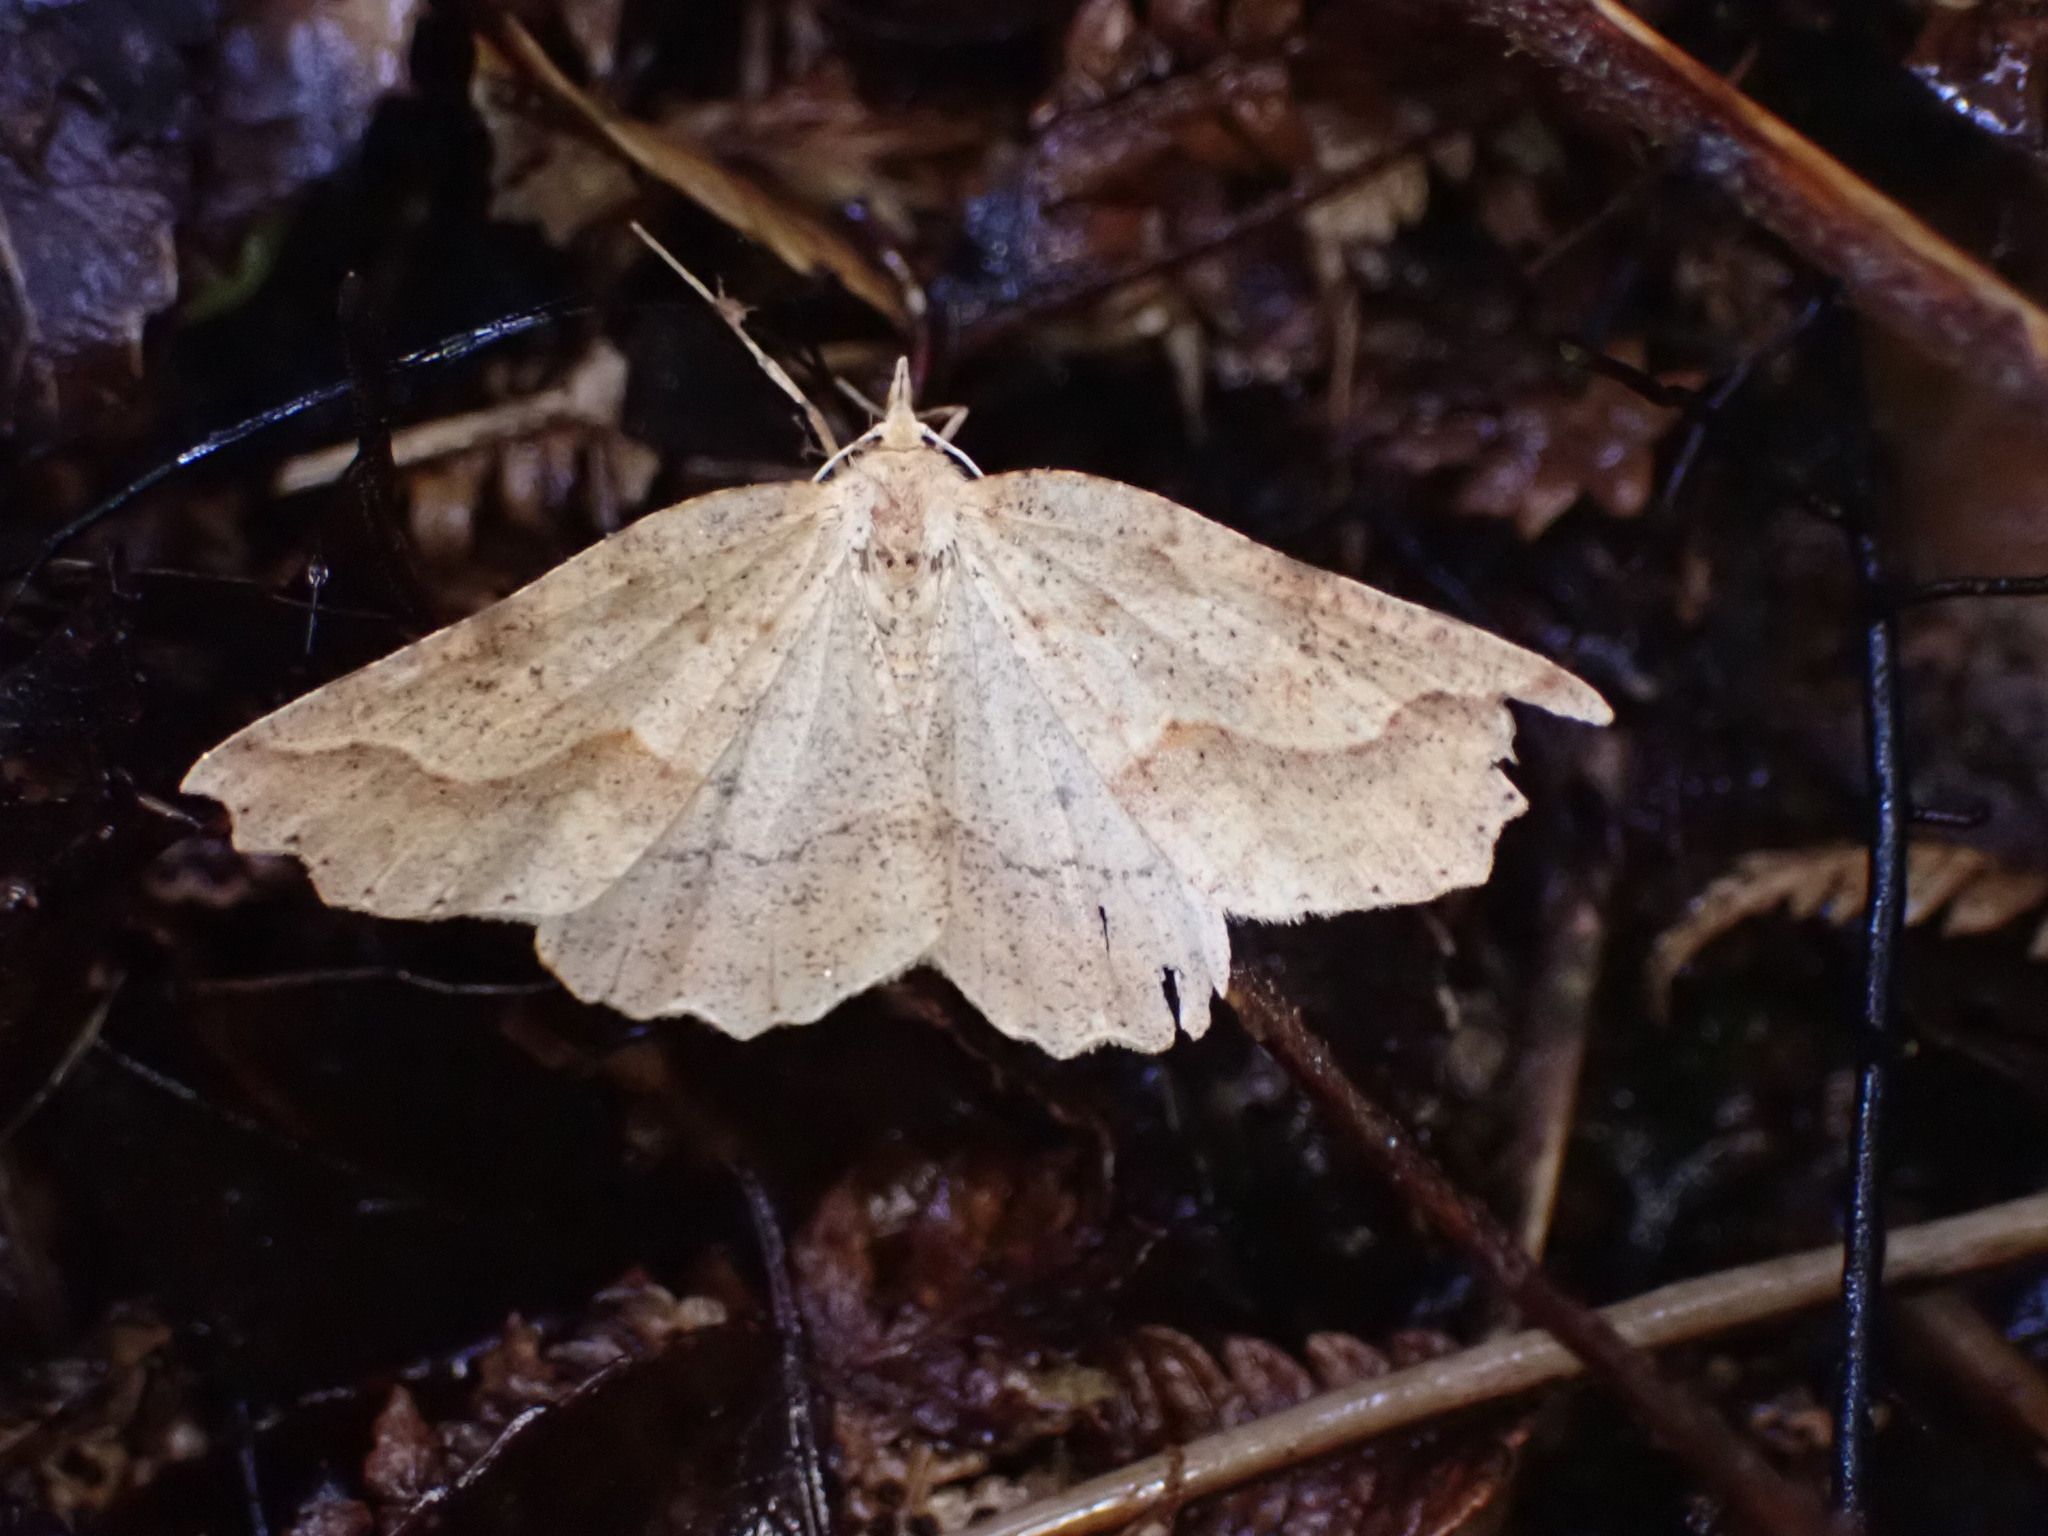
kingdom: Animalia
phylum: Arthropoda
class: Insecta
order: Lepidoptera
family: Geometridae
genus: Ischalis
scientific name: Ischalis variabilis
